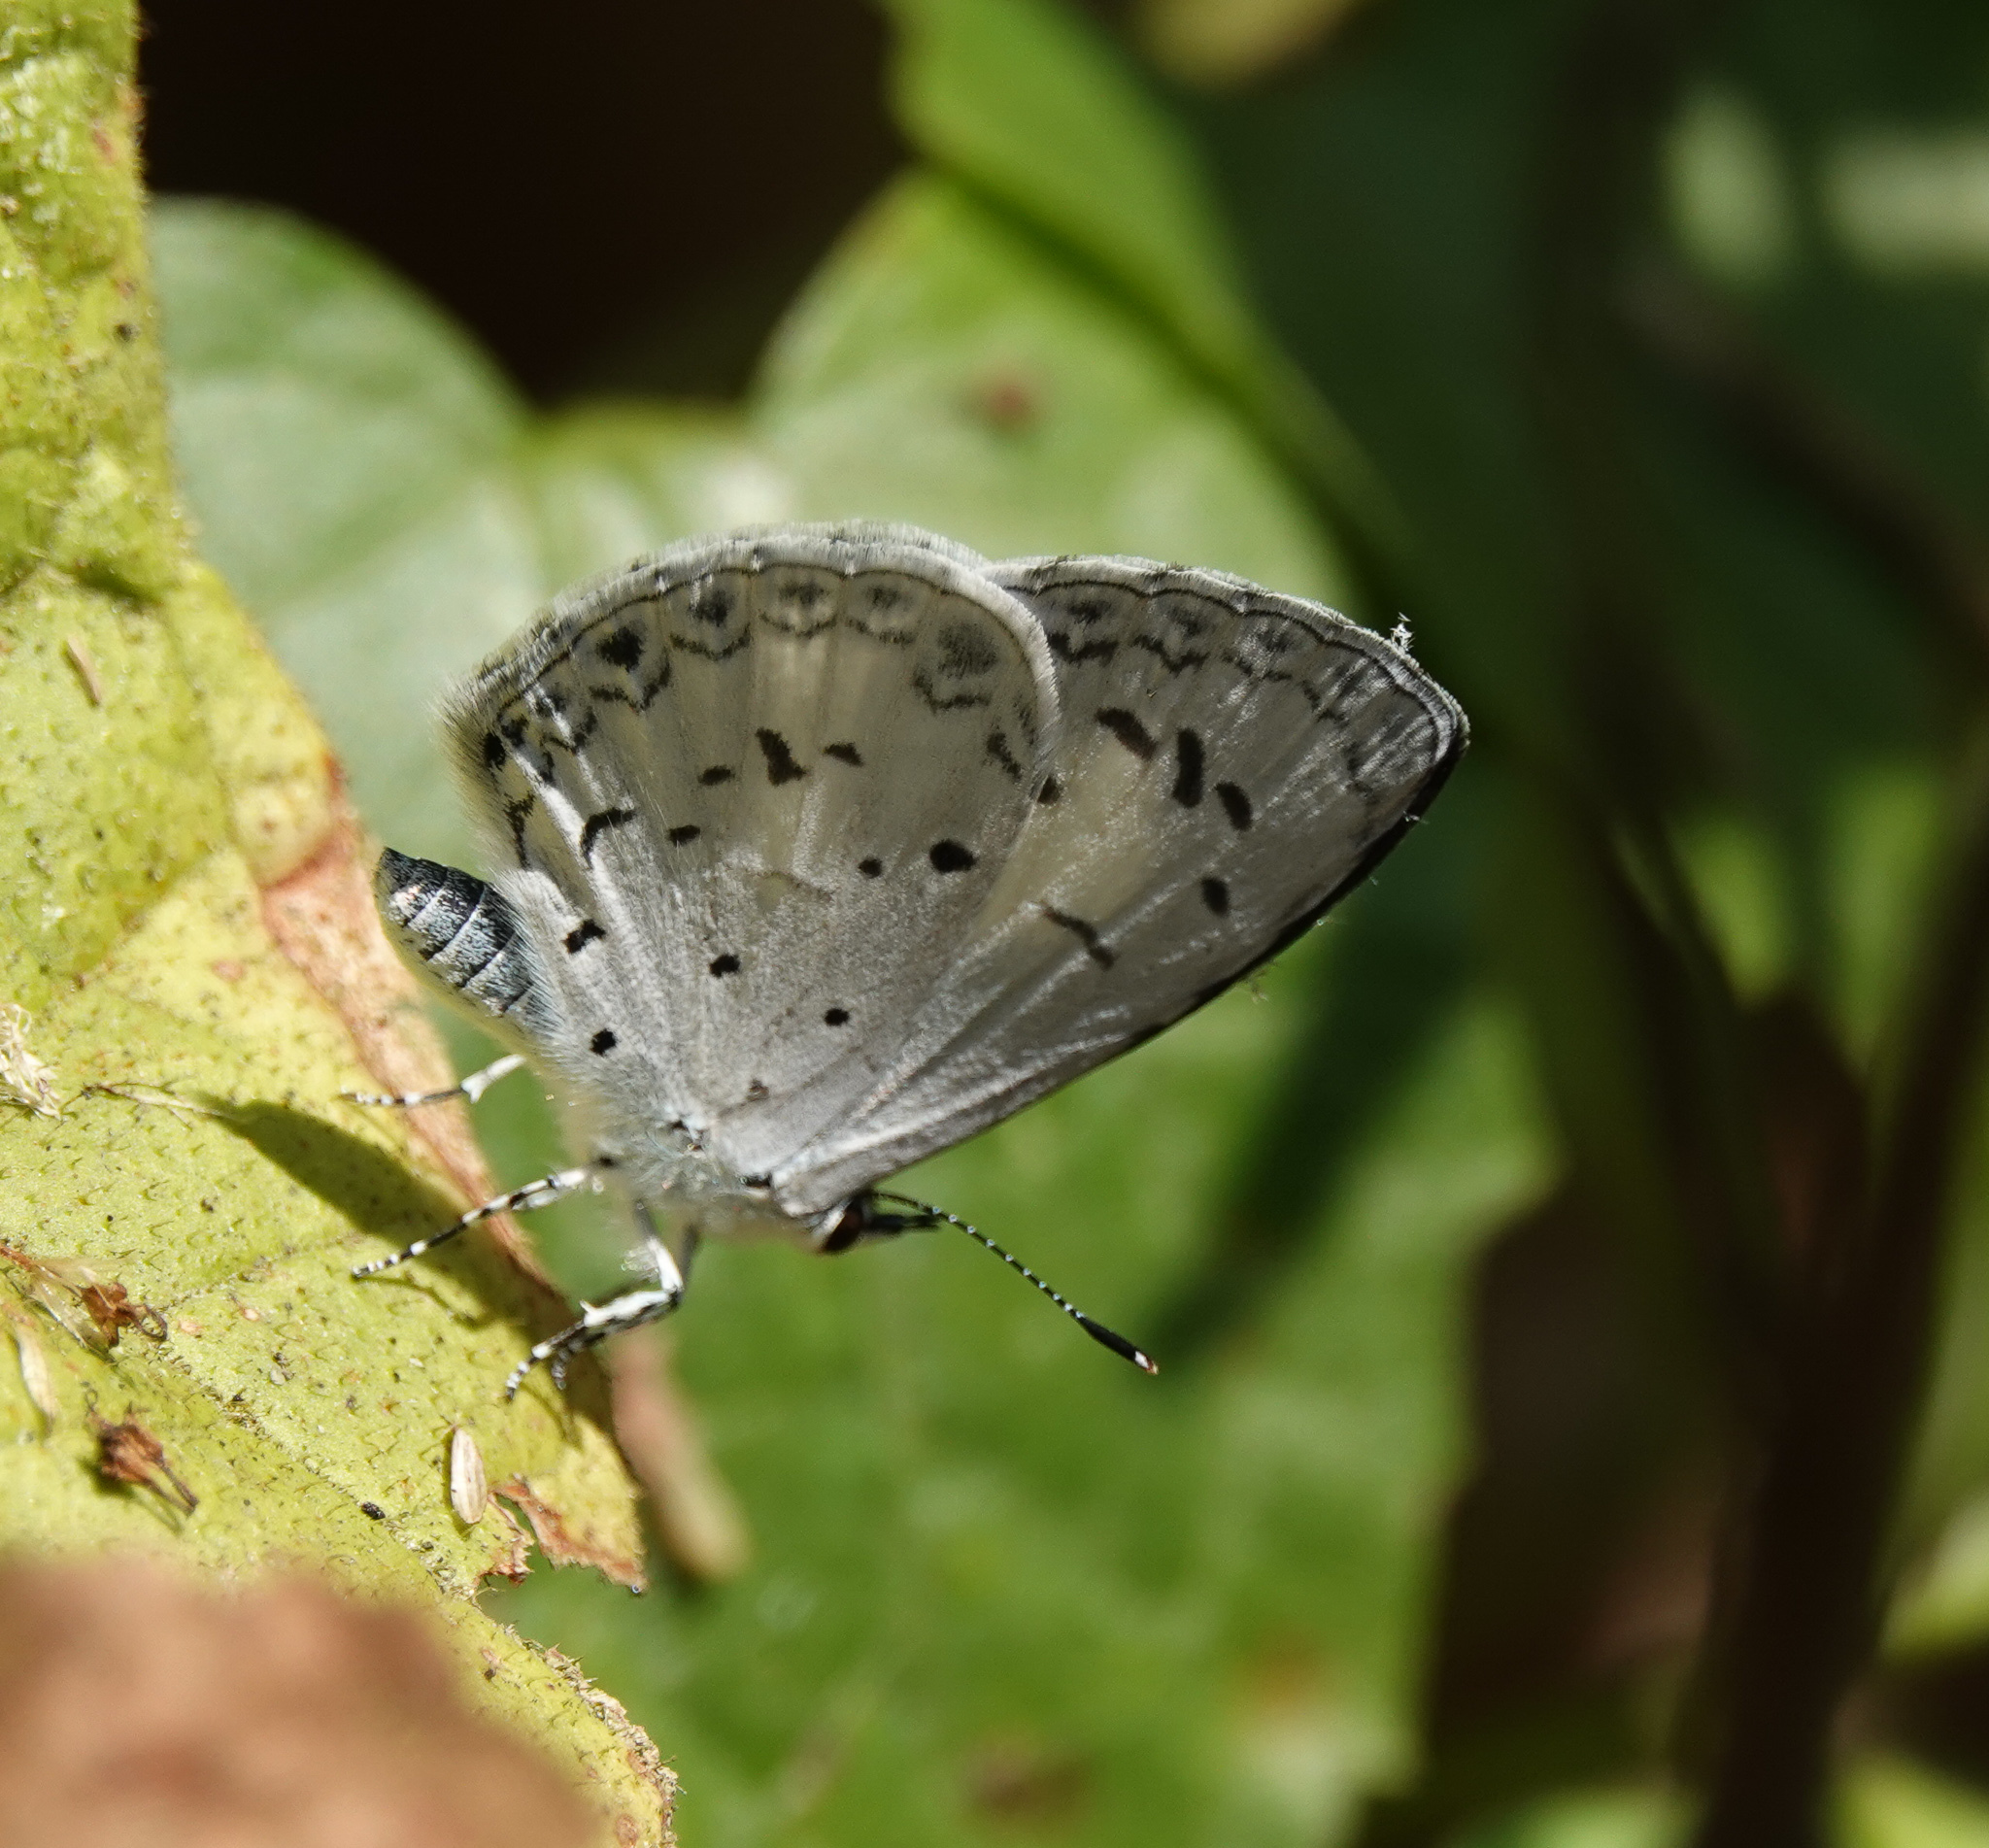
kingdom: Animalia
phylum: Arthropoda
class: Insecta
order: Lepidoptera
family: Lycaenidae
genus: Acytolepis
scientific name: Acytolepis puspa
